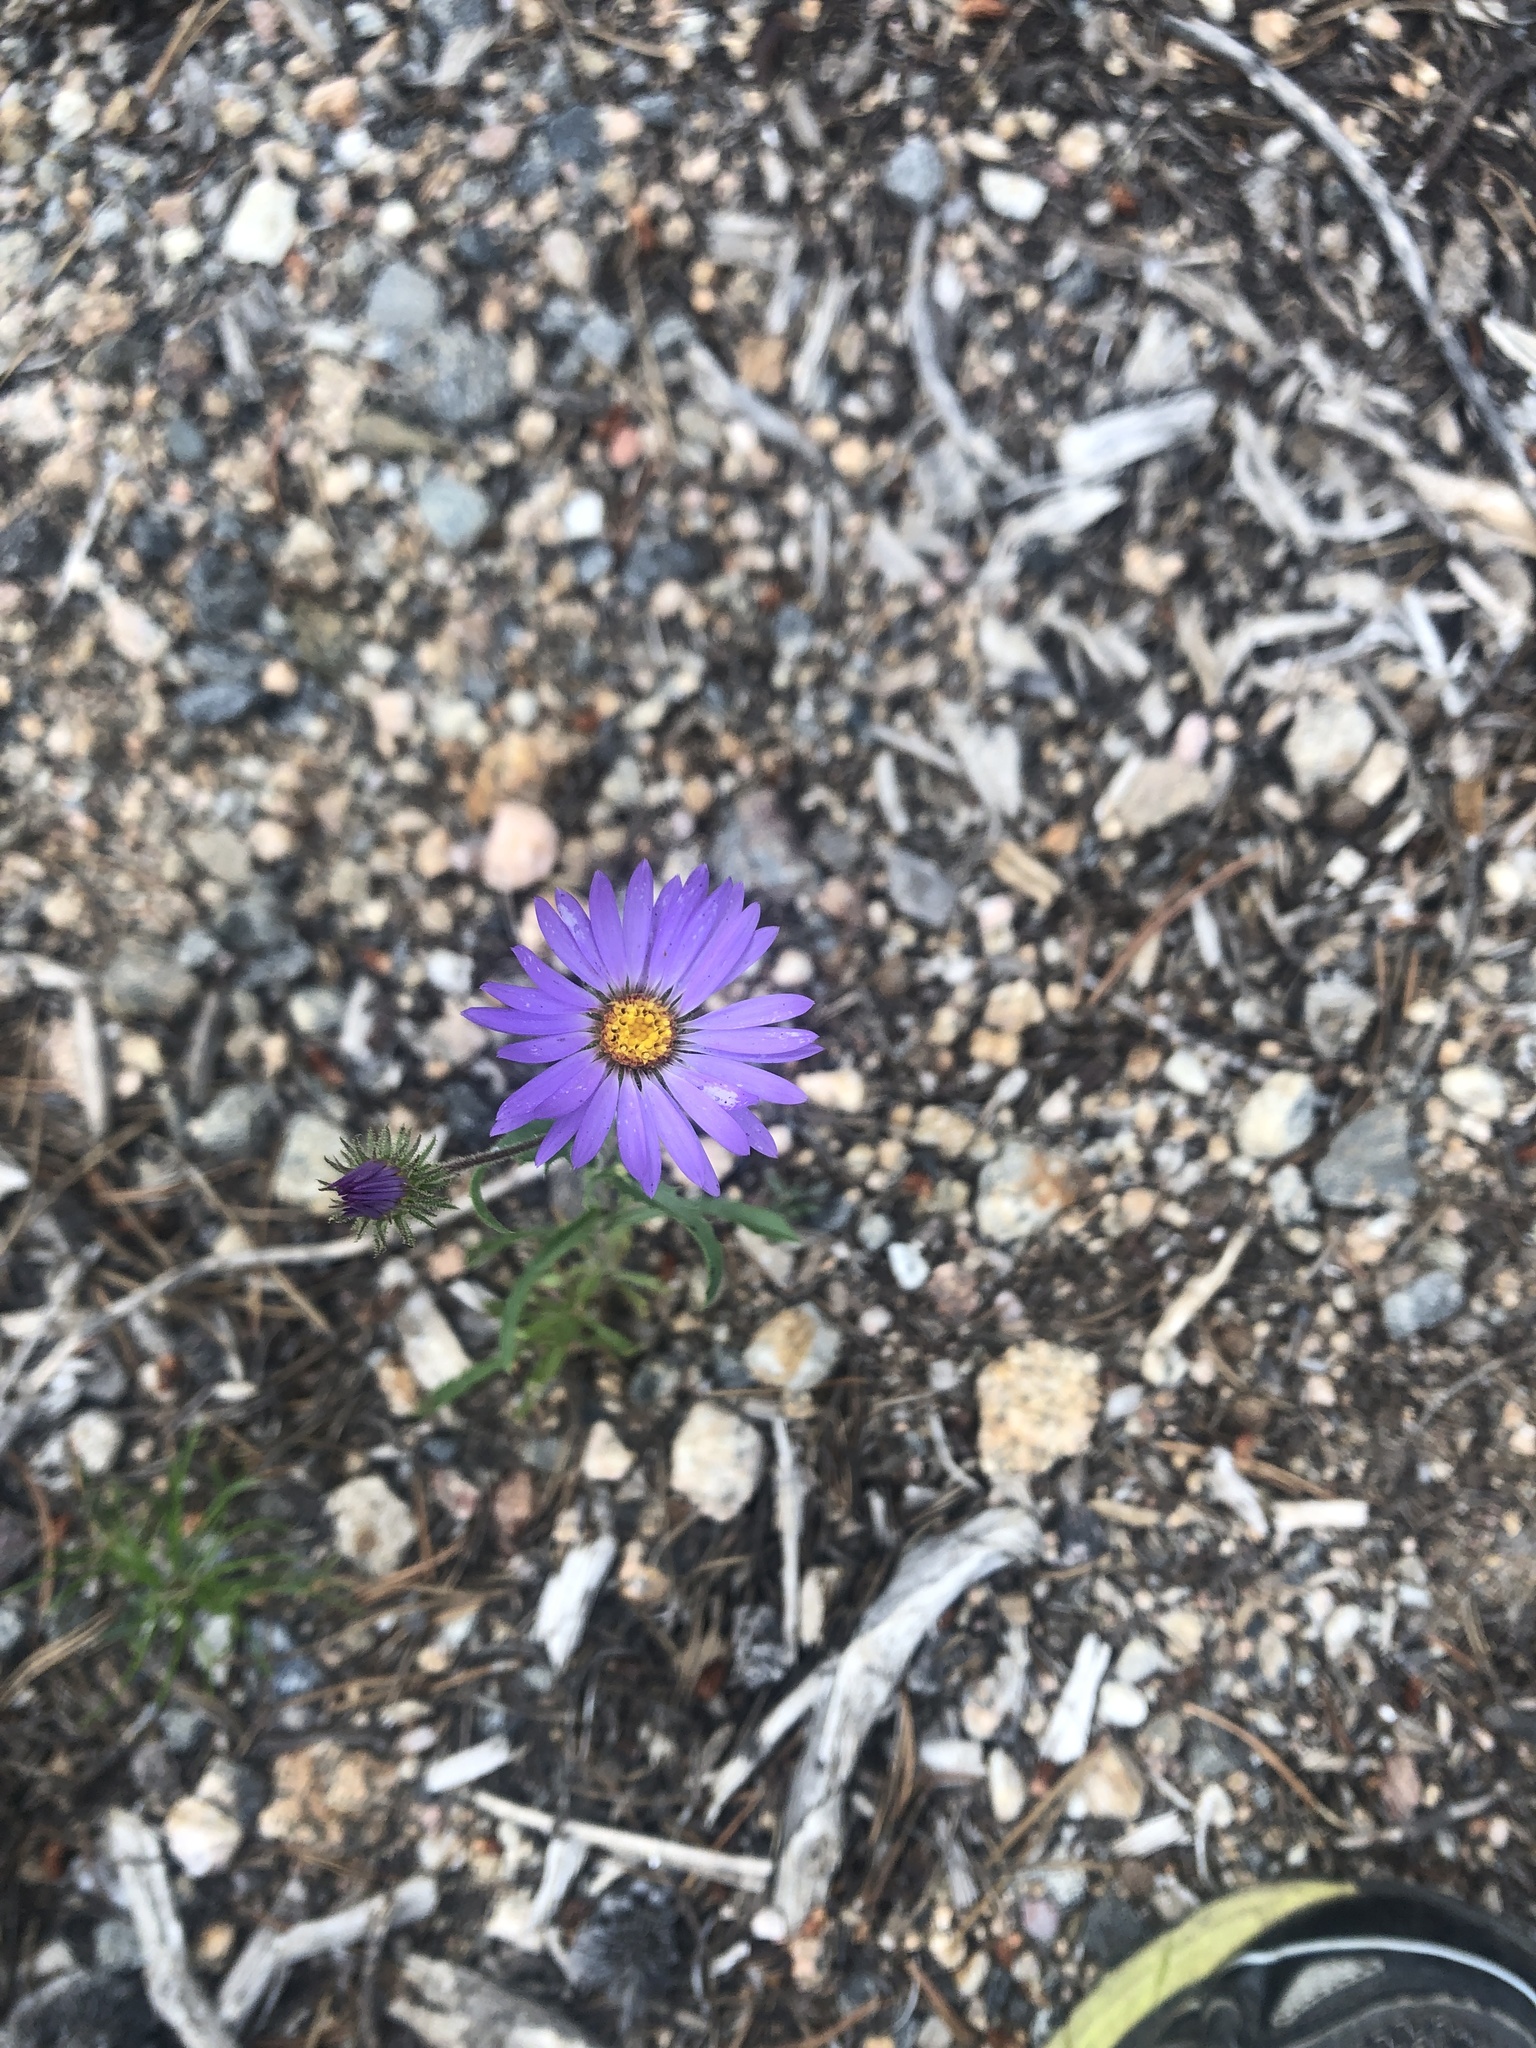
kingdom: Plantae
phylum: Tracheophyta
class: Magnoliopsida
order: Asterales
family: Asteraceae
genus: Erigeron
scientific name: Erigeron speciosus
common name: Aspen fleabane
